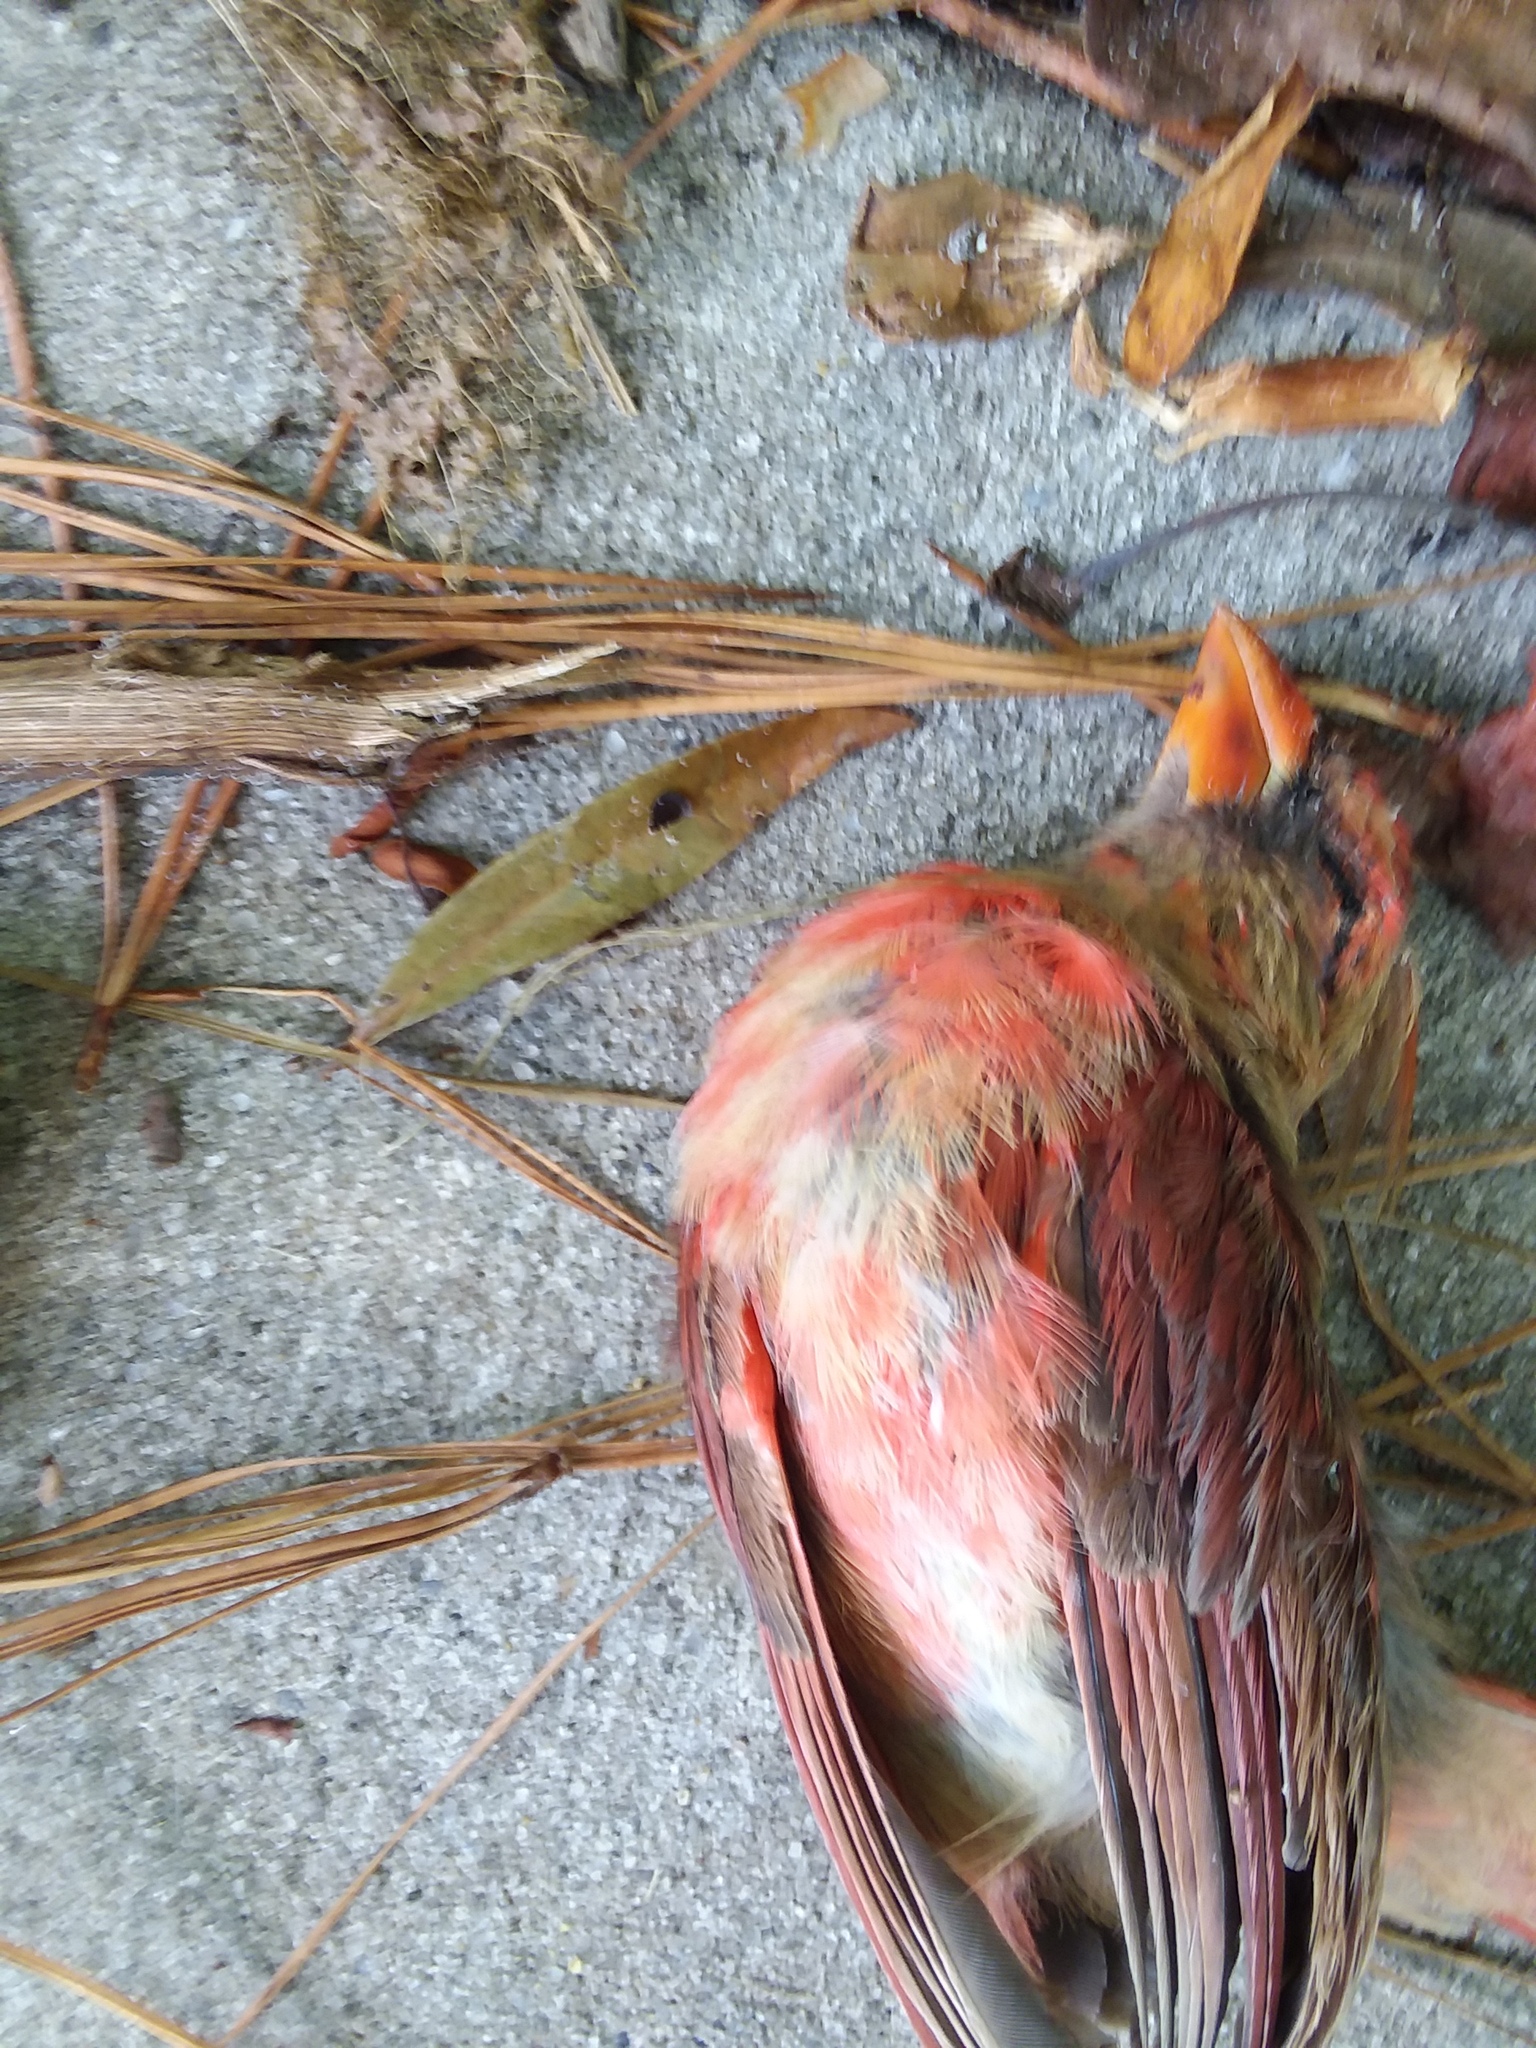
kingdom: Animalia
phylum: Chordata
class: Aves
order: Passeriformes
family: Cardinalidae
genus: Cardinalis
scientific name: Cardinalis cardinalis
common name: Northern cardinal
